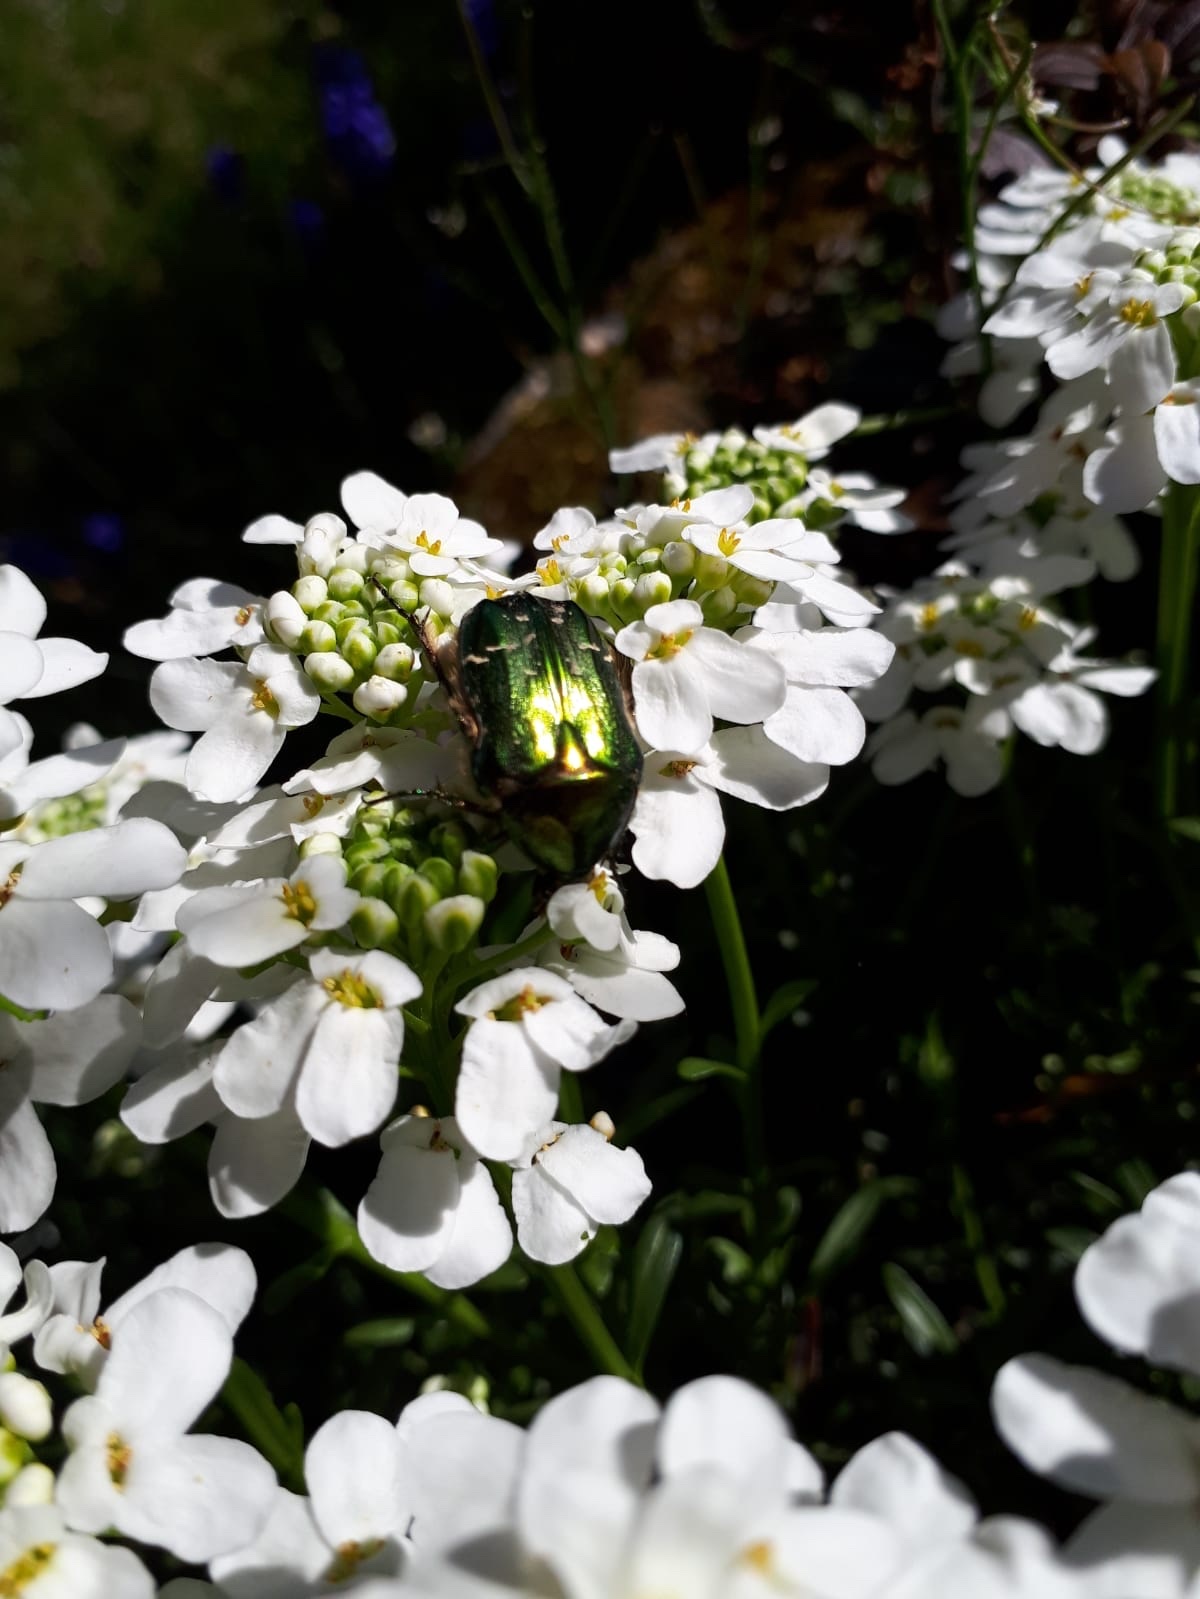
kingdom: Animalia
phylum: Arthropoda
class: Insecta
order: Coleoptera
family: Scarabaeidae
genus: Cetonia
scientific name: Cetonia aurata
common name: Rose chafer
